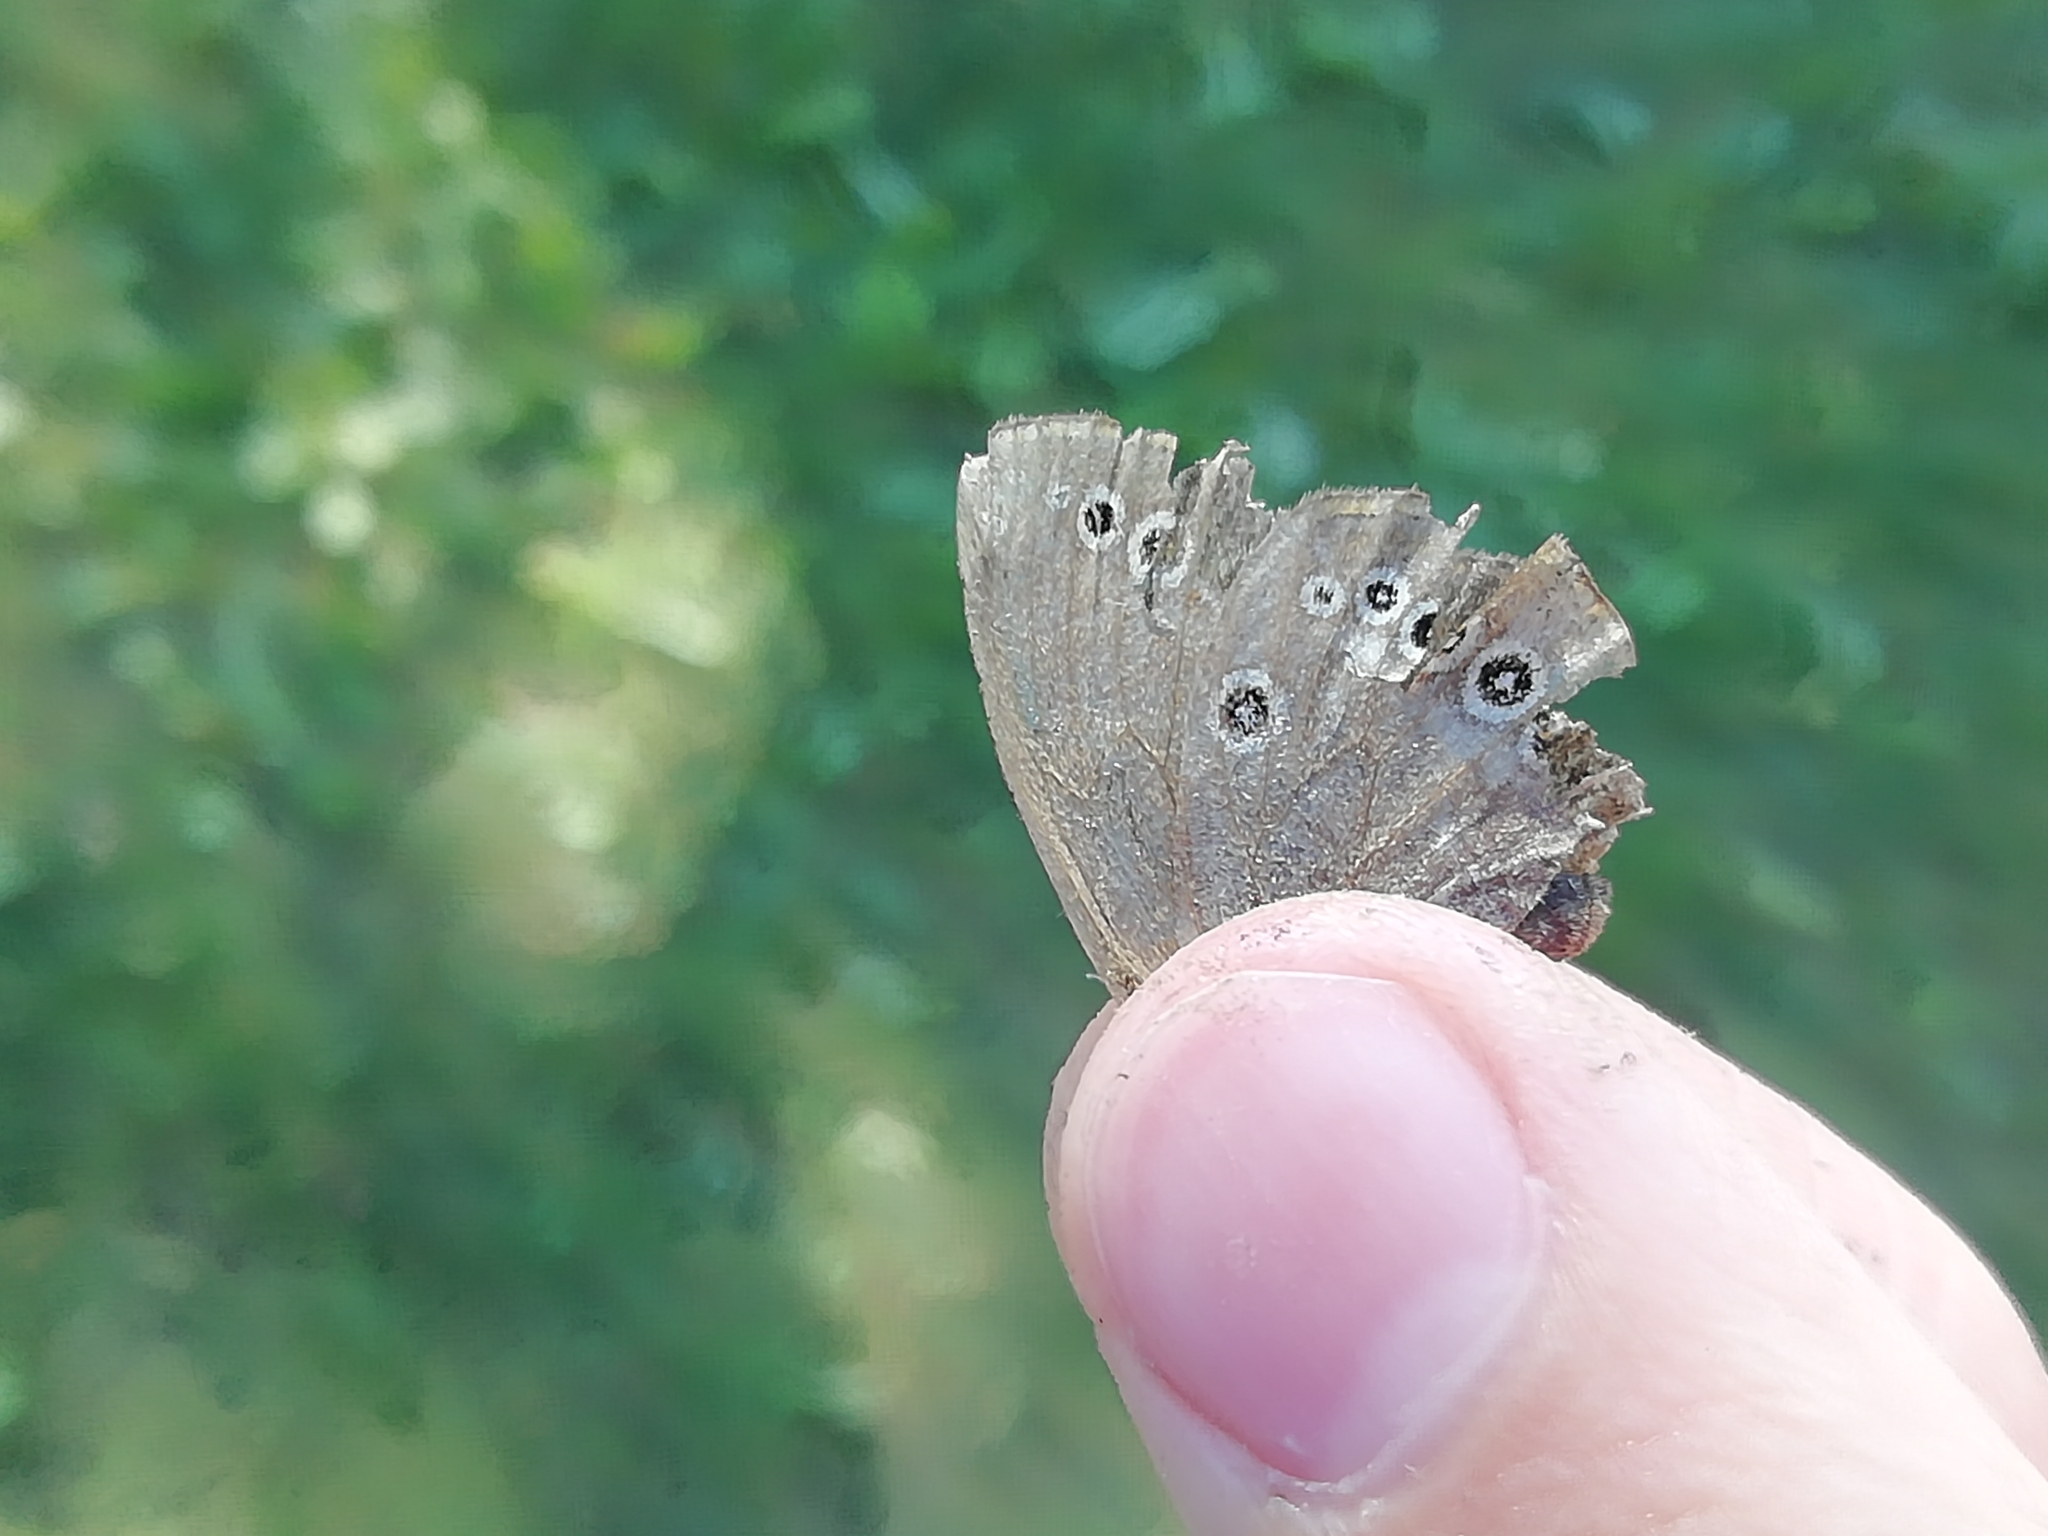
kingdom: Animalia
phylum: Arthropoda
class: Insecta
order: Lepidoptera
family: Nymphalidae
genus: Coenonympha
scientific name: Coenonympha oedippus
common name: False ringlet
